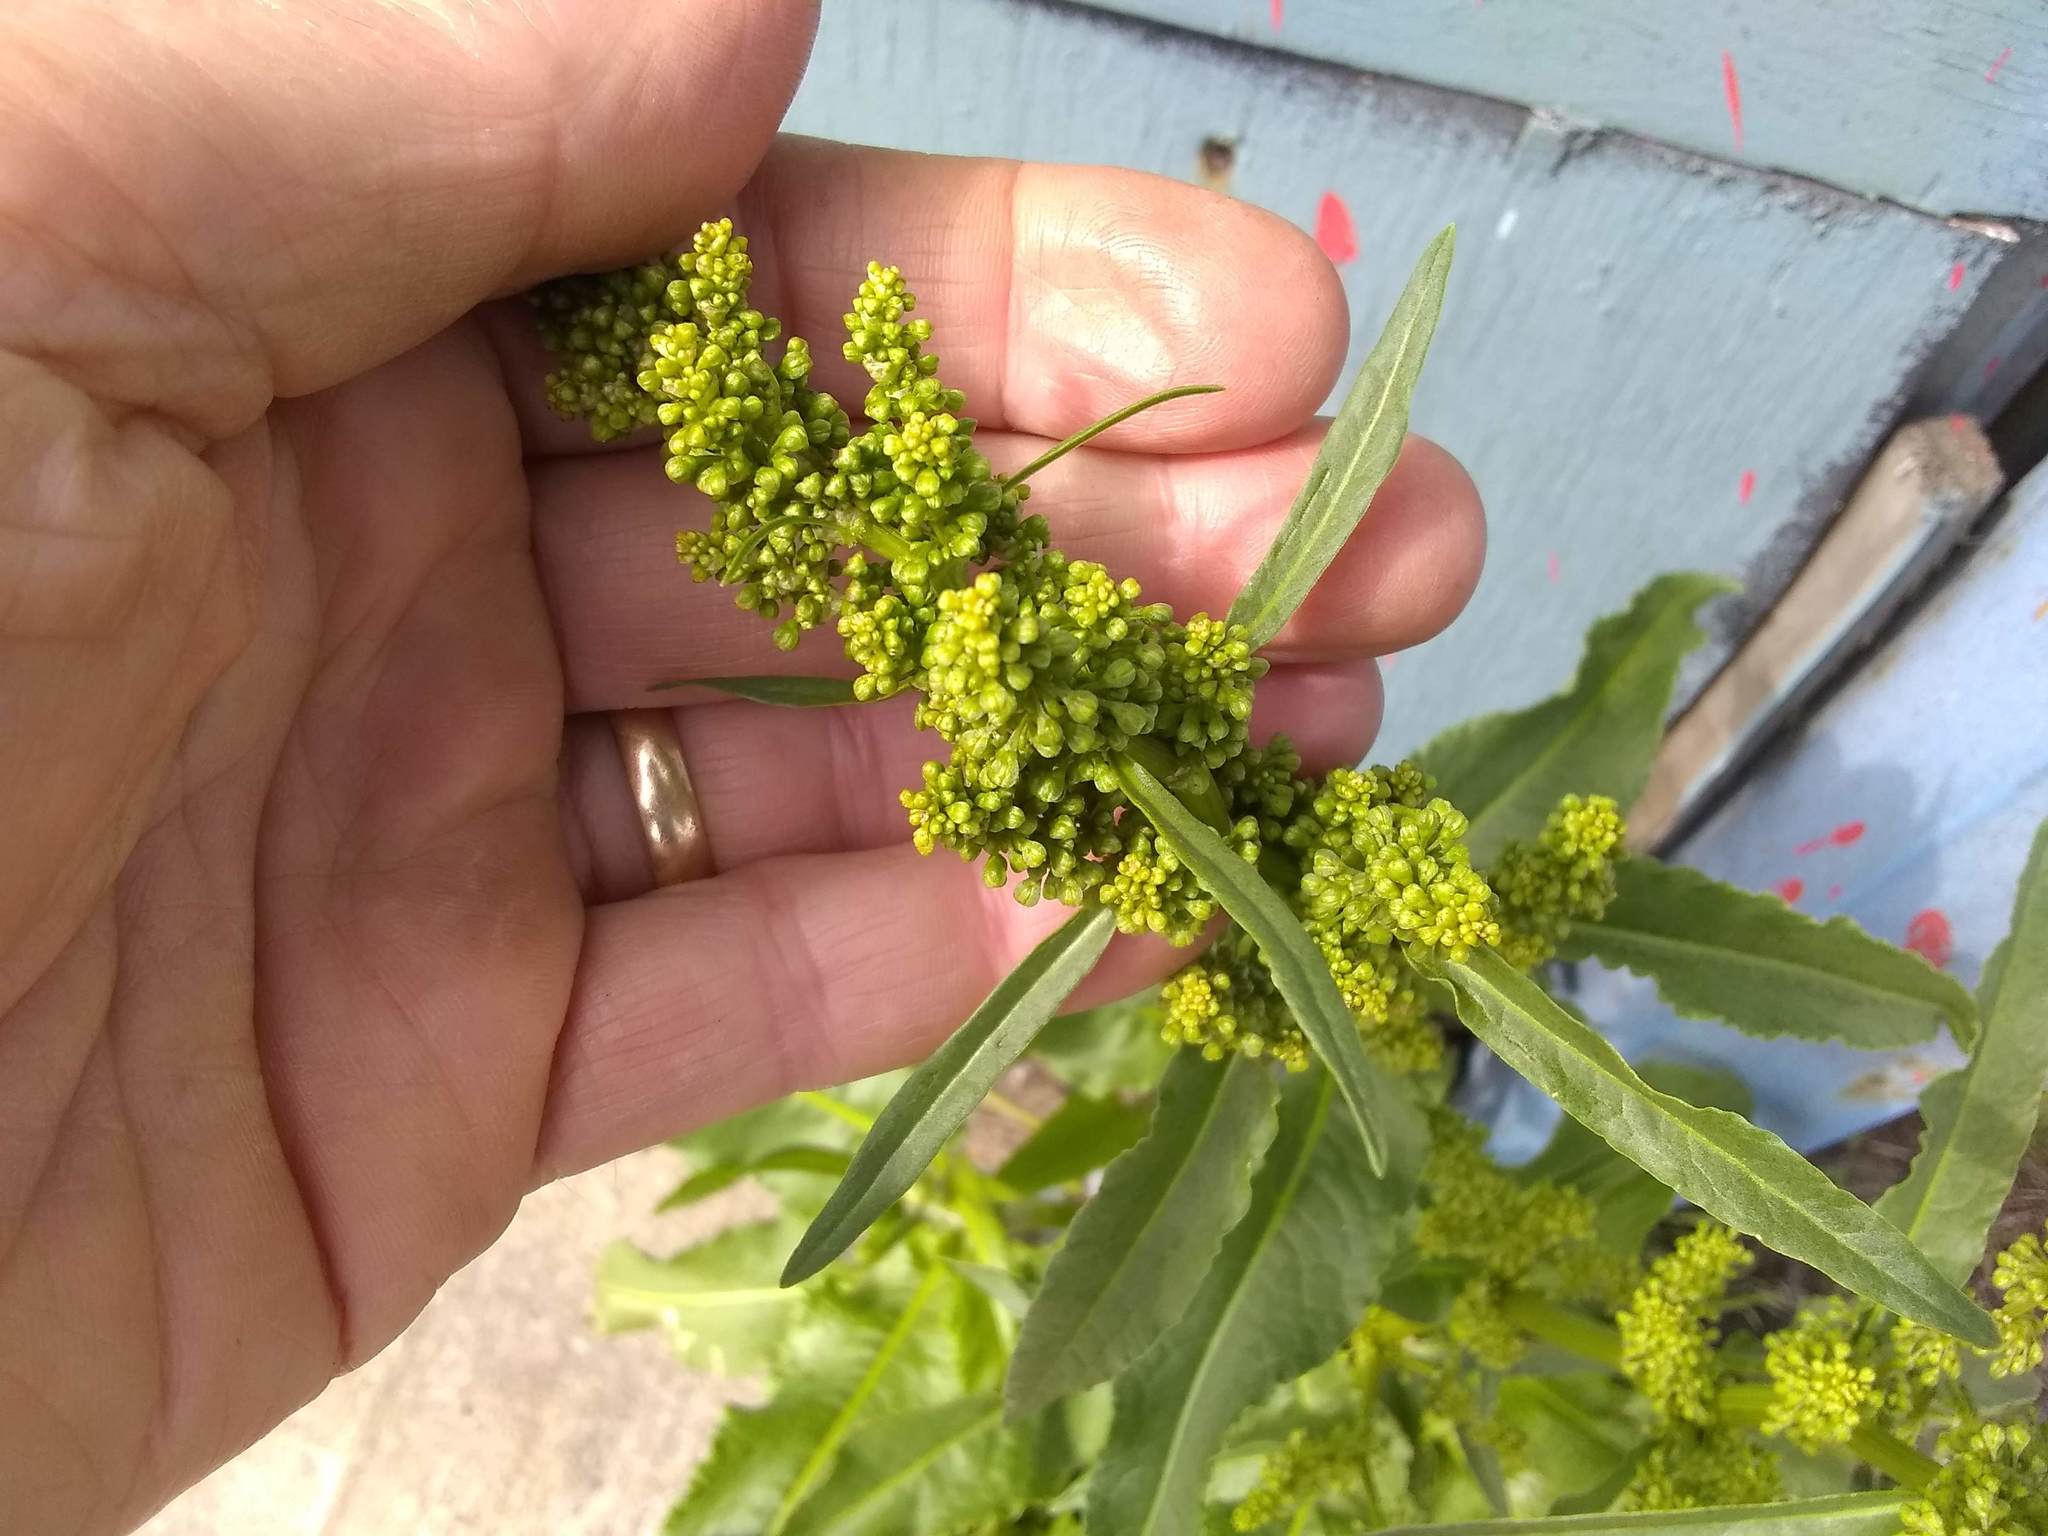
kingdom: Plantae
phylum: Tracheophyta
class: Magnoliopsida
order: Caryophyllales
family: Polygonaceae
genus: Rumex
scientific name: Rumex crispus
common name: Curled dock
